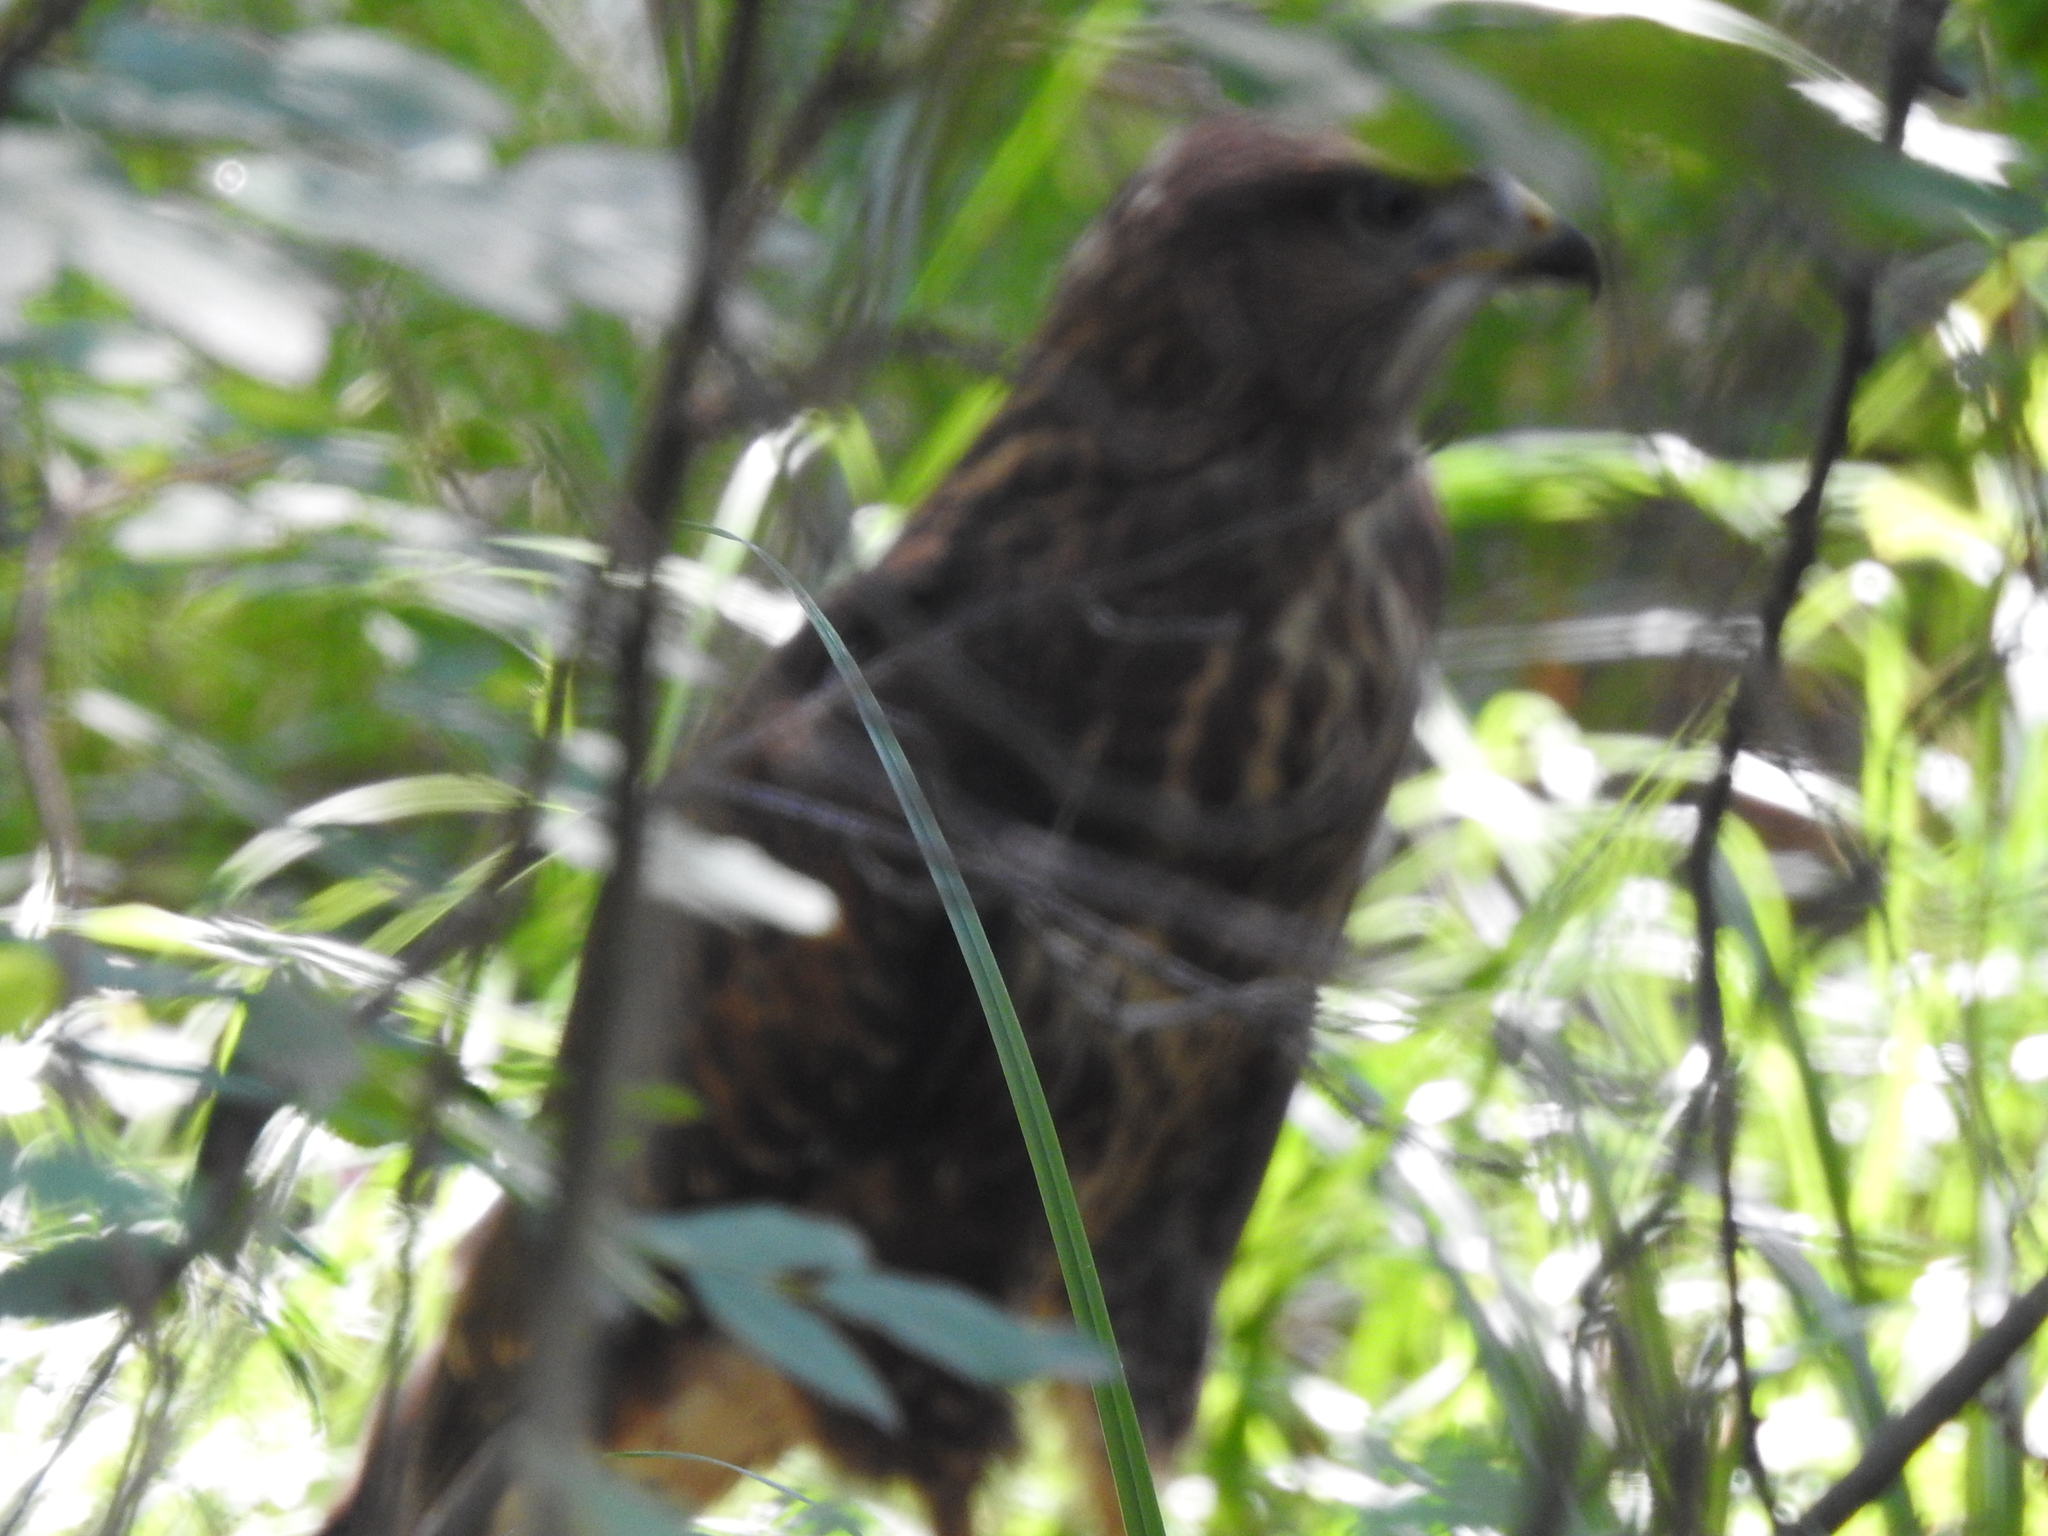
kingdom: Animalia
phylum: Chordata
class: Aves
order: Accipitriformes
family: Accipitridae
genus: Buteo
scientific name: Buteo buteo
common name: Common buzzard
